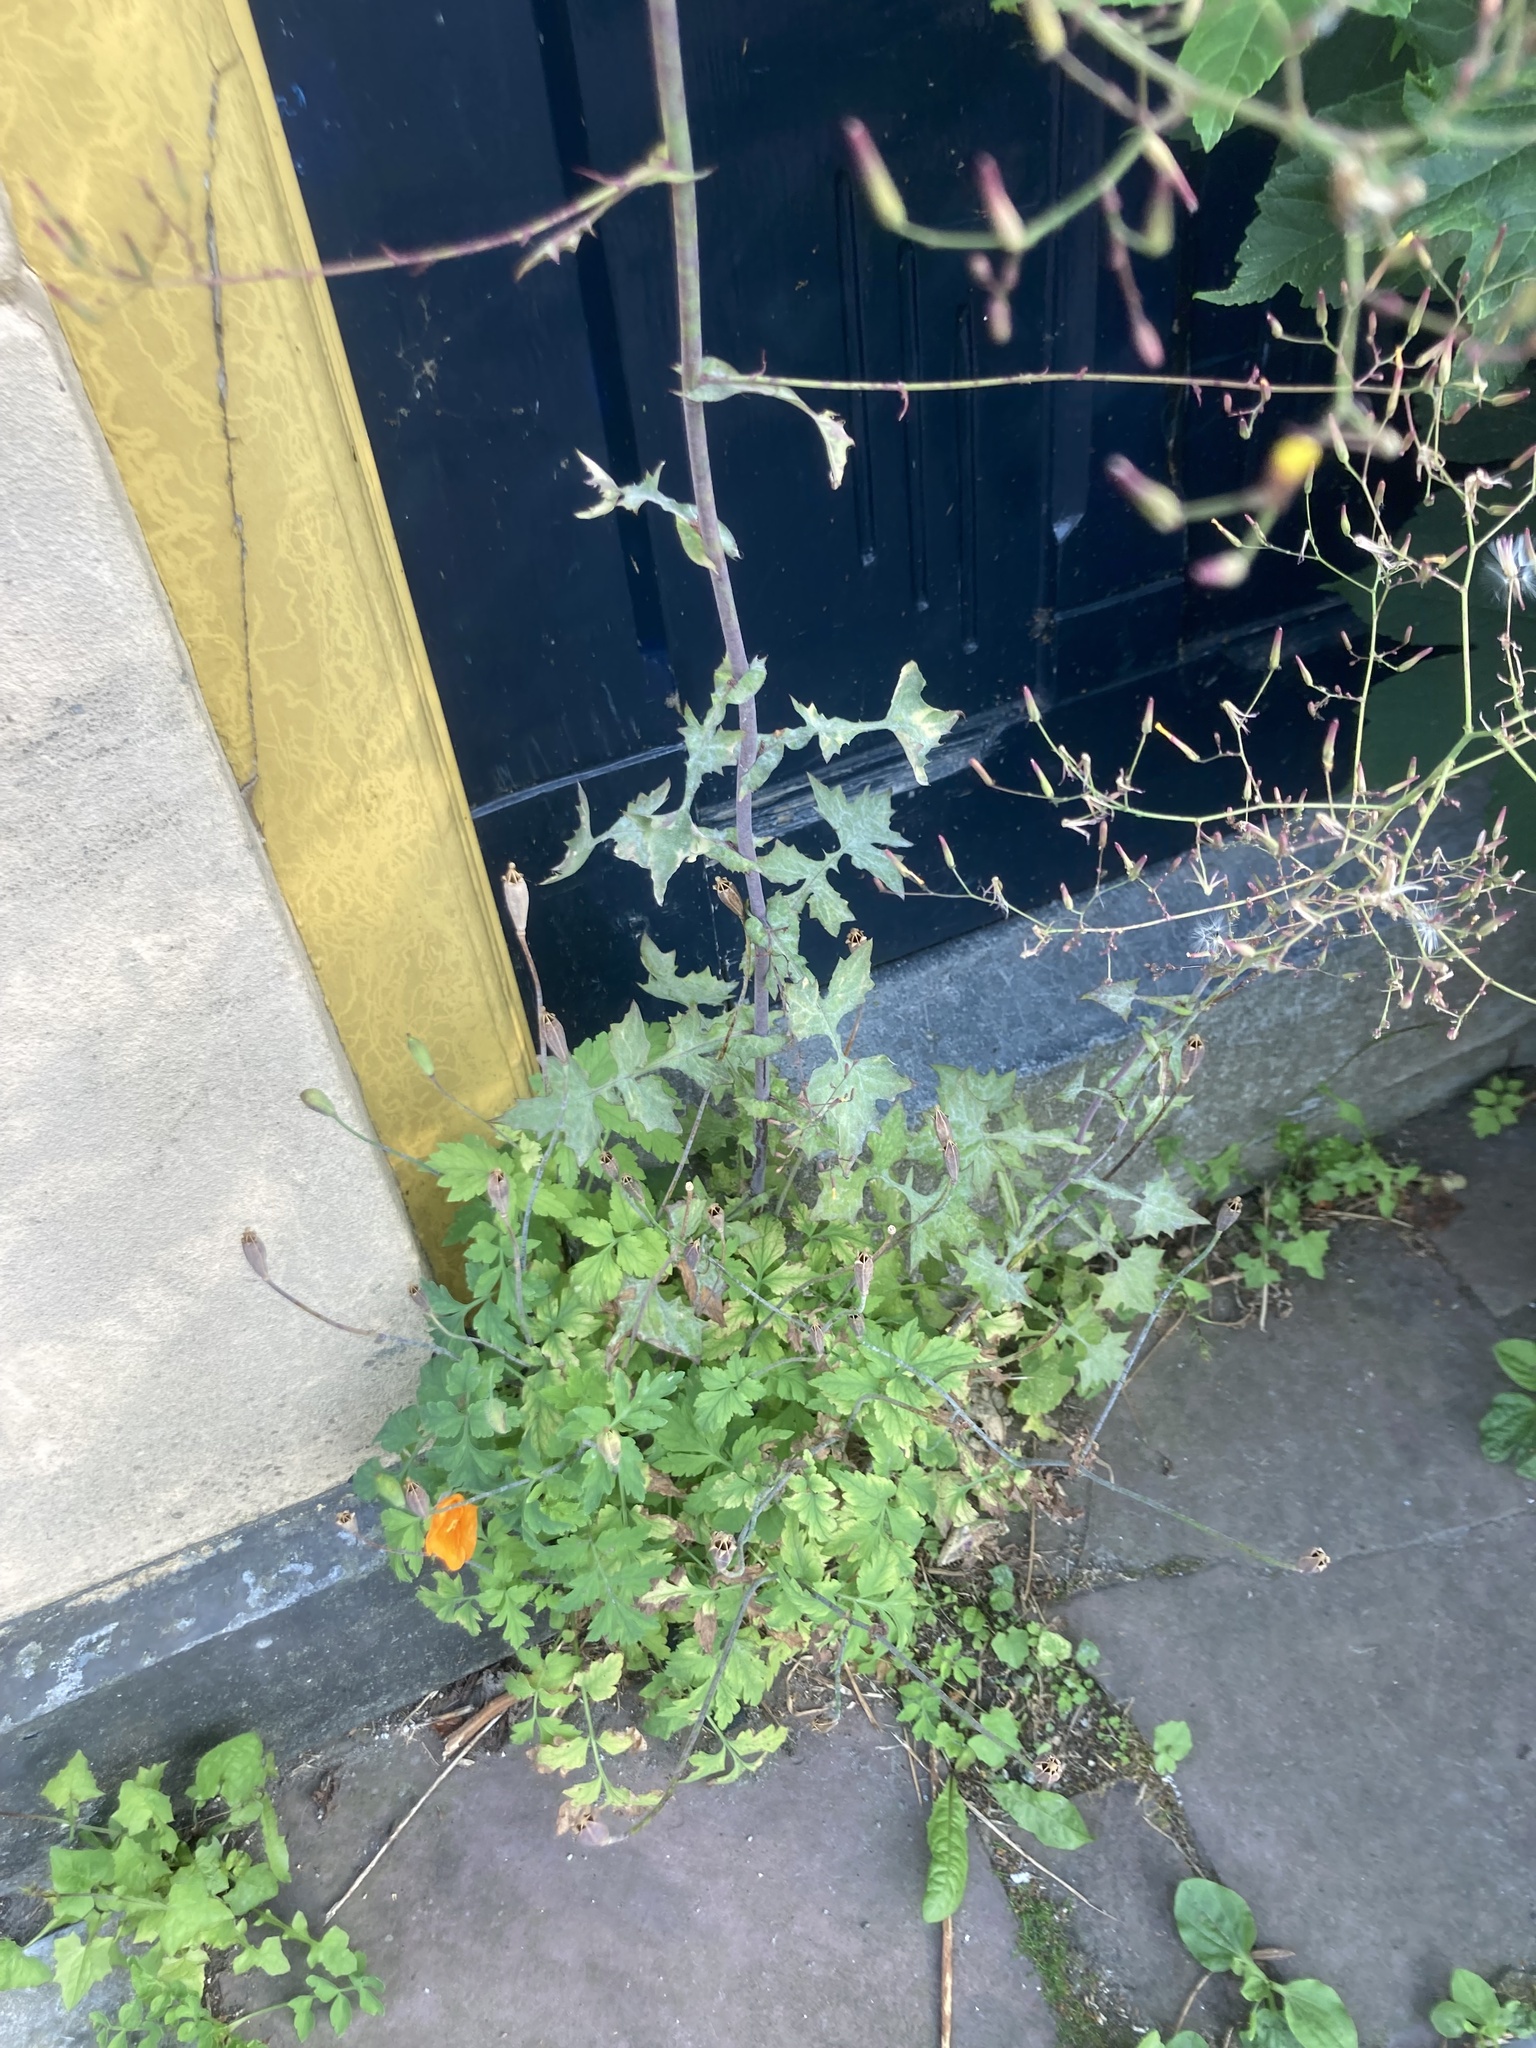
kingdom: Plantae
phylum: Tracheophyta
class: Magnoliopsida
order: Asterales
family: Asteraceae
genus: Mycelis
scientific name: Mycelis muralis
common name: Wall lettuce
